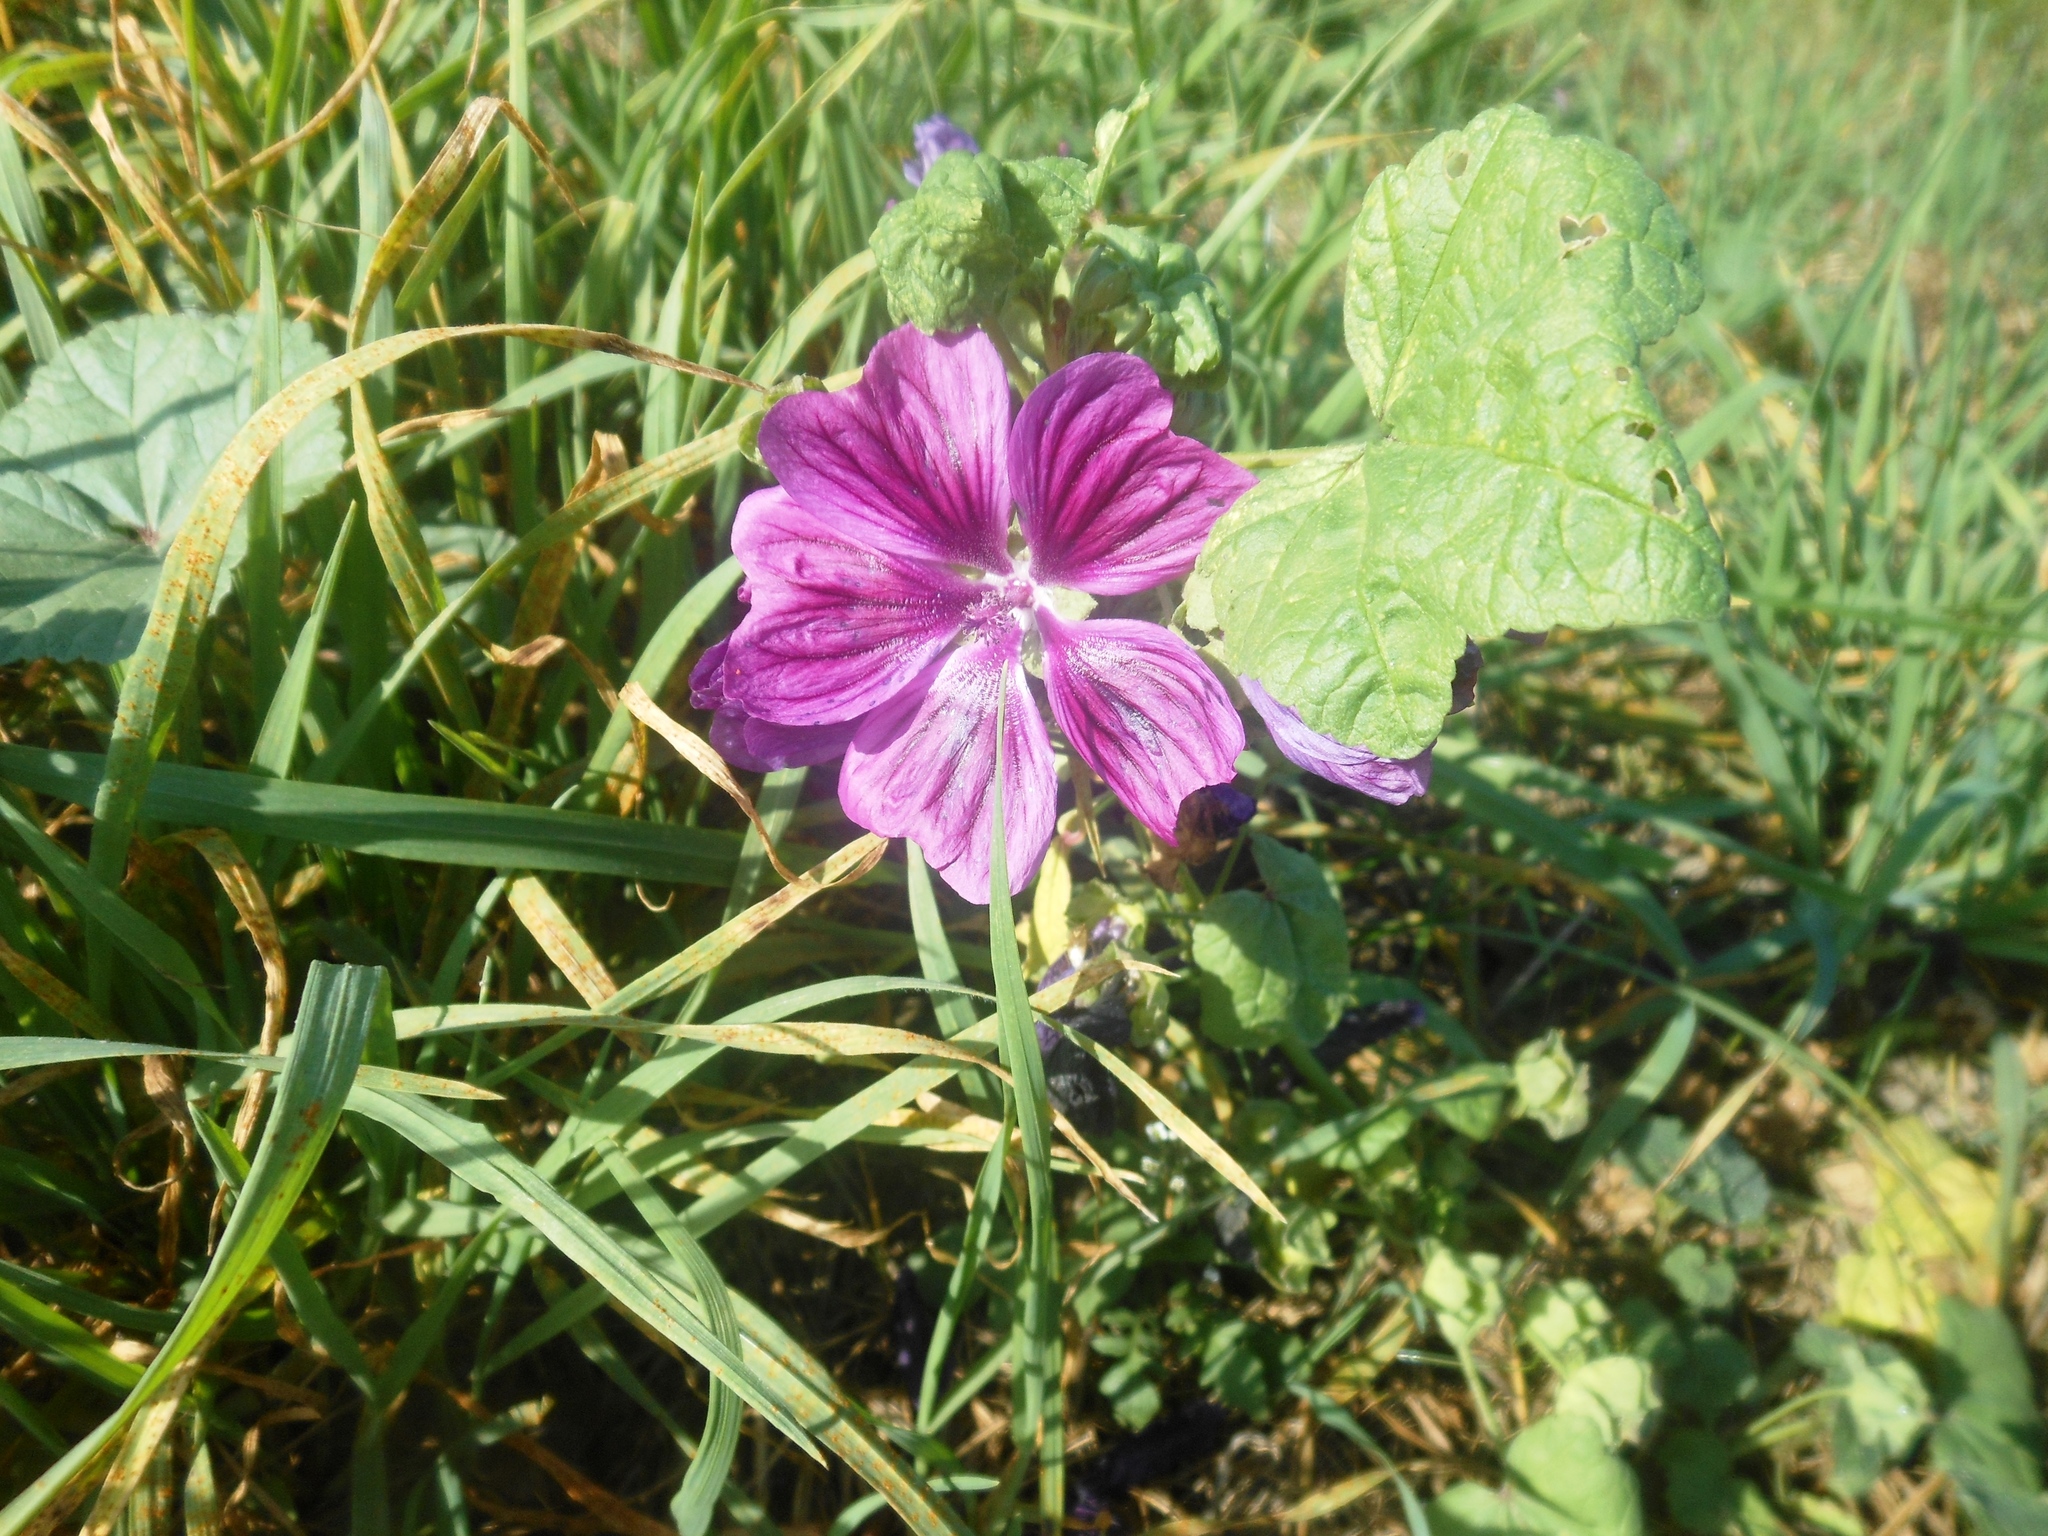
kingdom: Plantae
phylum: Tracheophyta
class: Magnoliopsida
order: Malvales
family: Malvaceae
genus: Malva
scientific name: Malva sylvestris
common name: Common mallow
